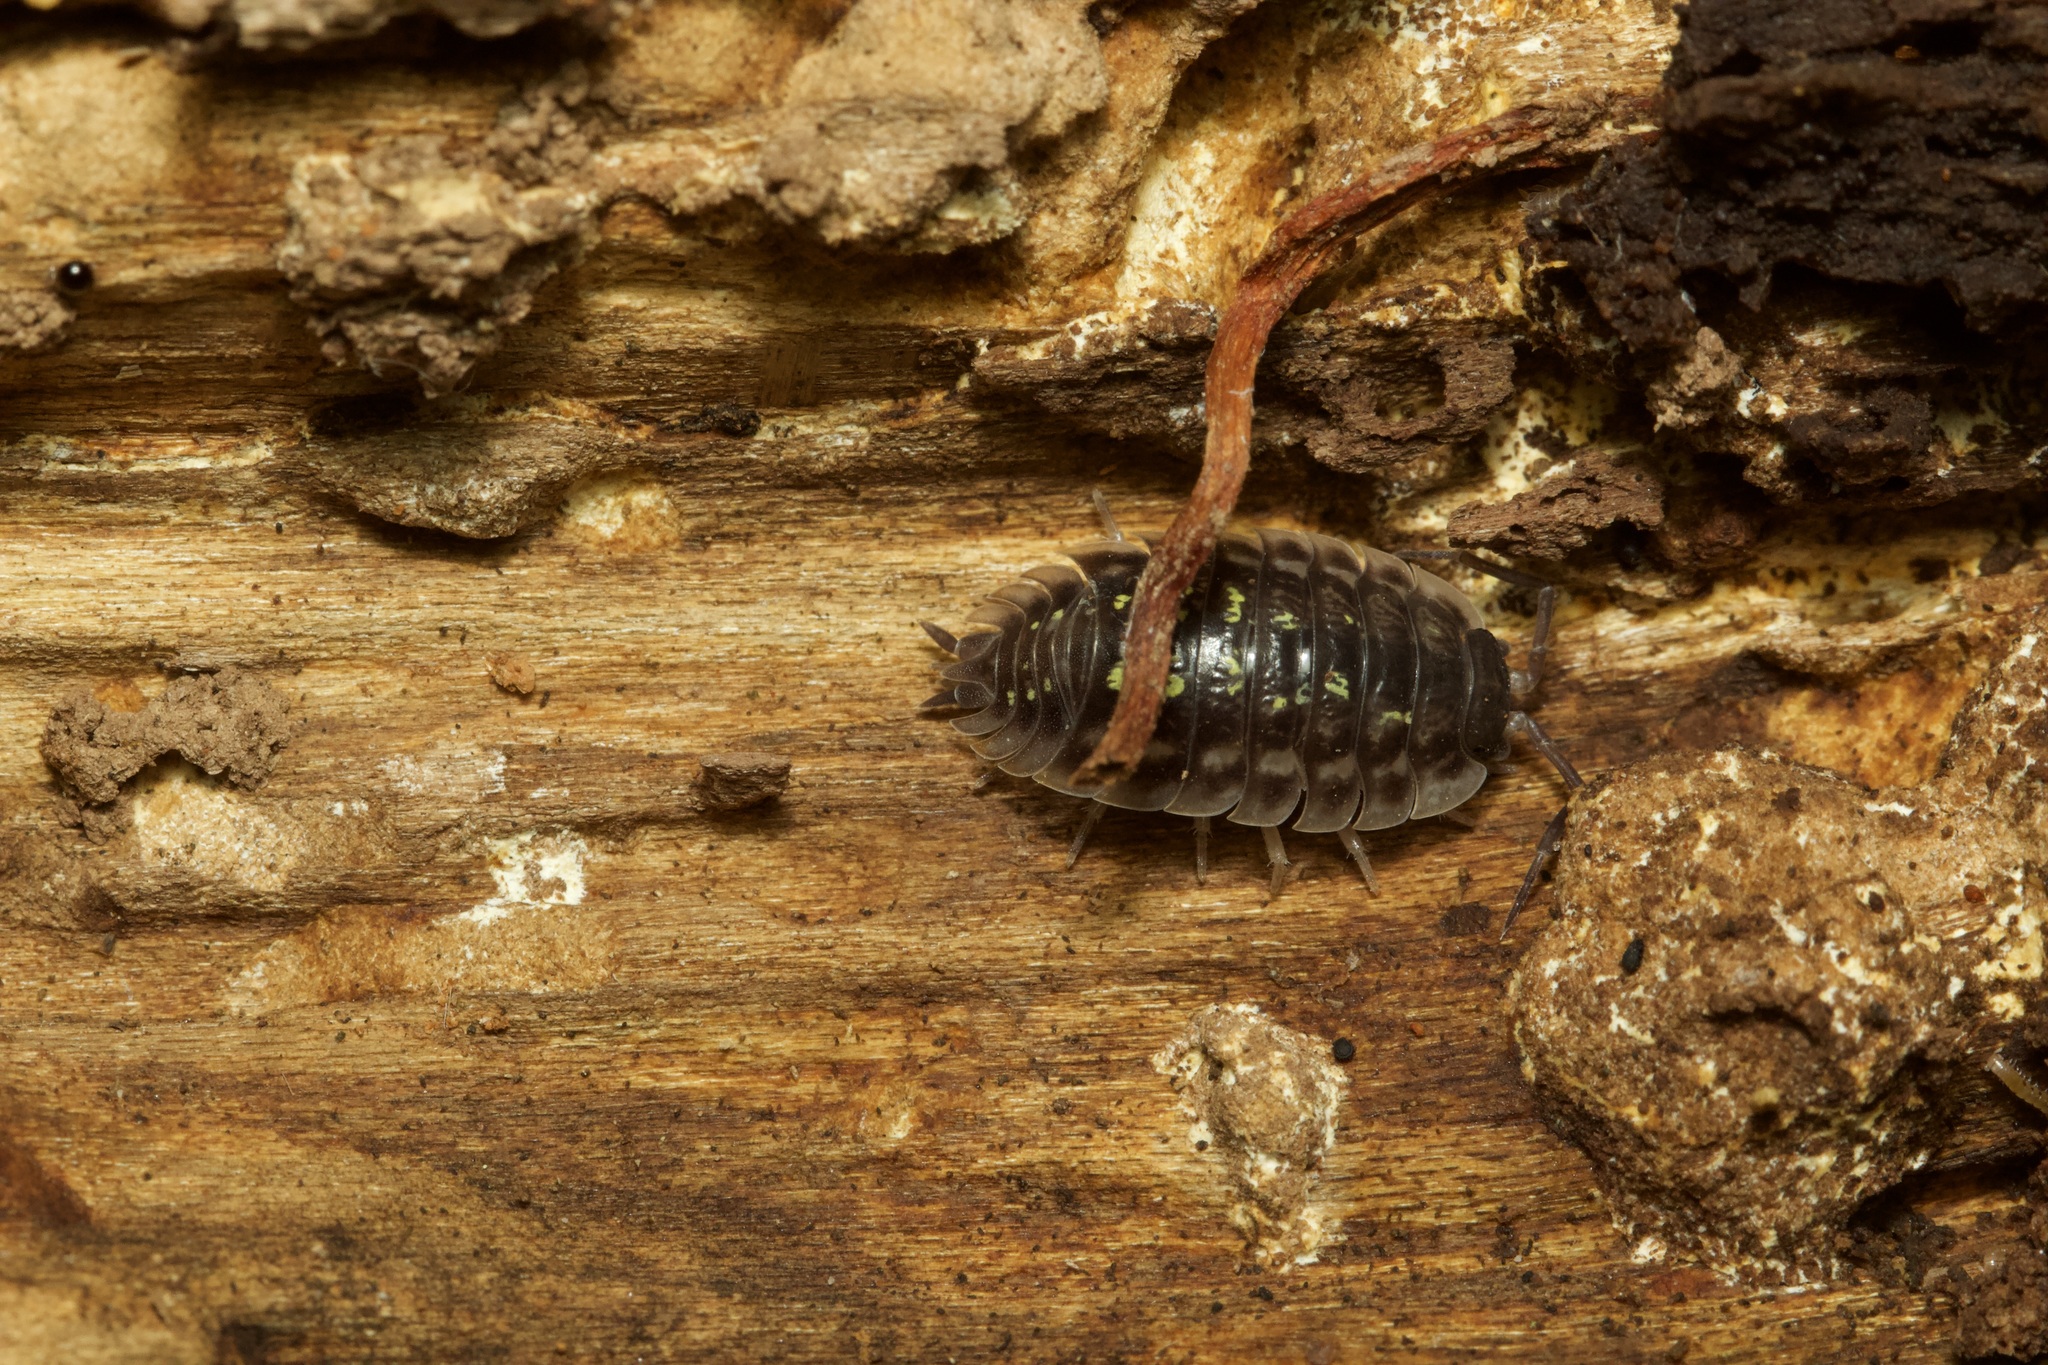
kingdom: Animalia
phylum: Arthropoda
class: Malacostraca
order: Isopoda
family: Oniscidae
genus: Oniscus
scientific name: Oniscus asellus
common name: Common shiny woodlouse
